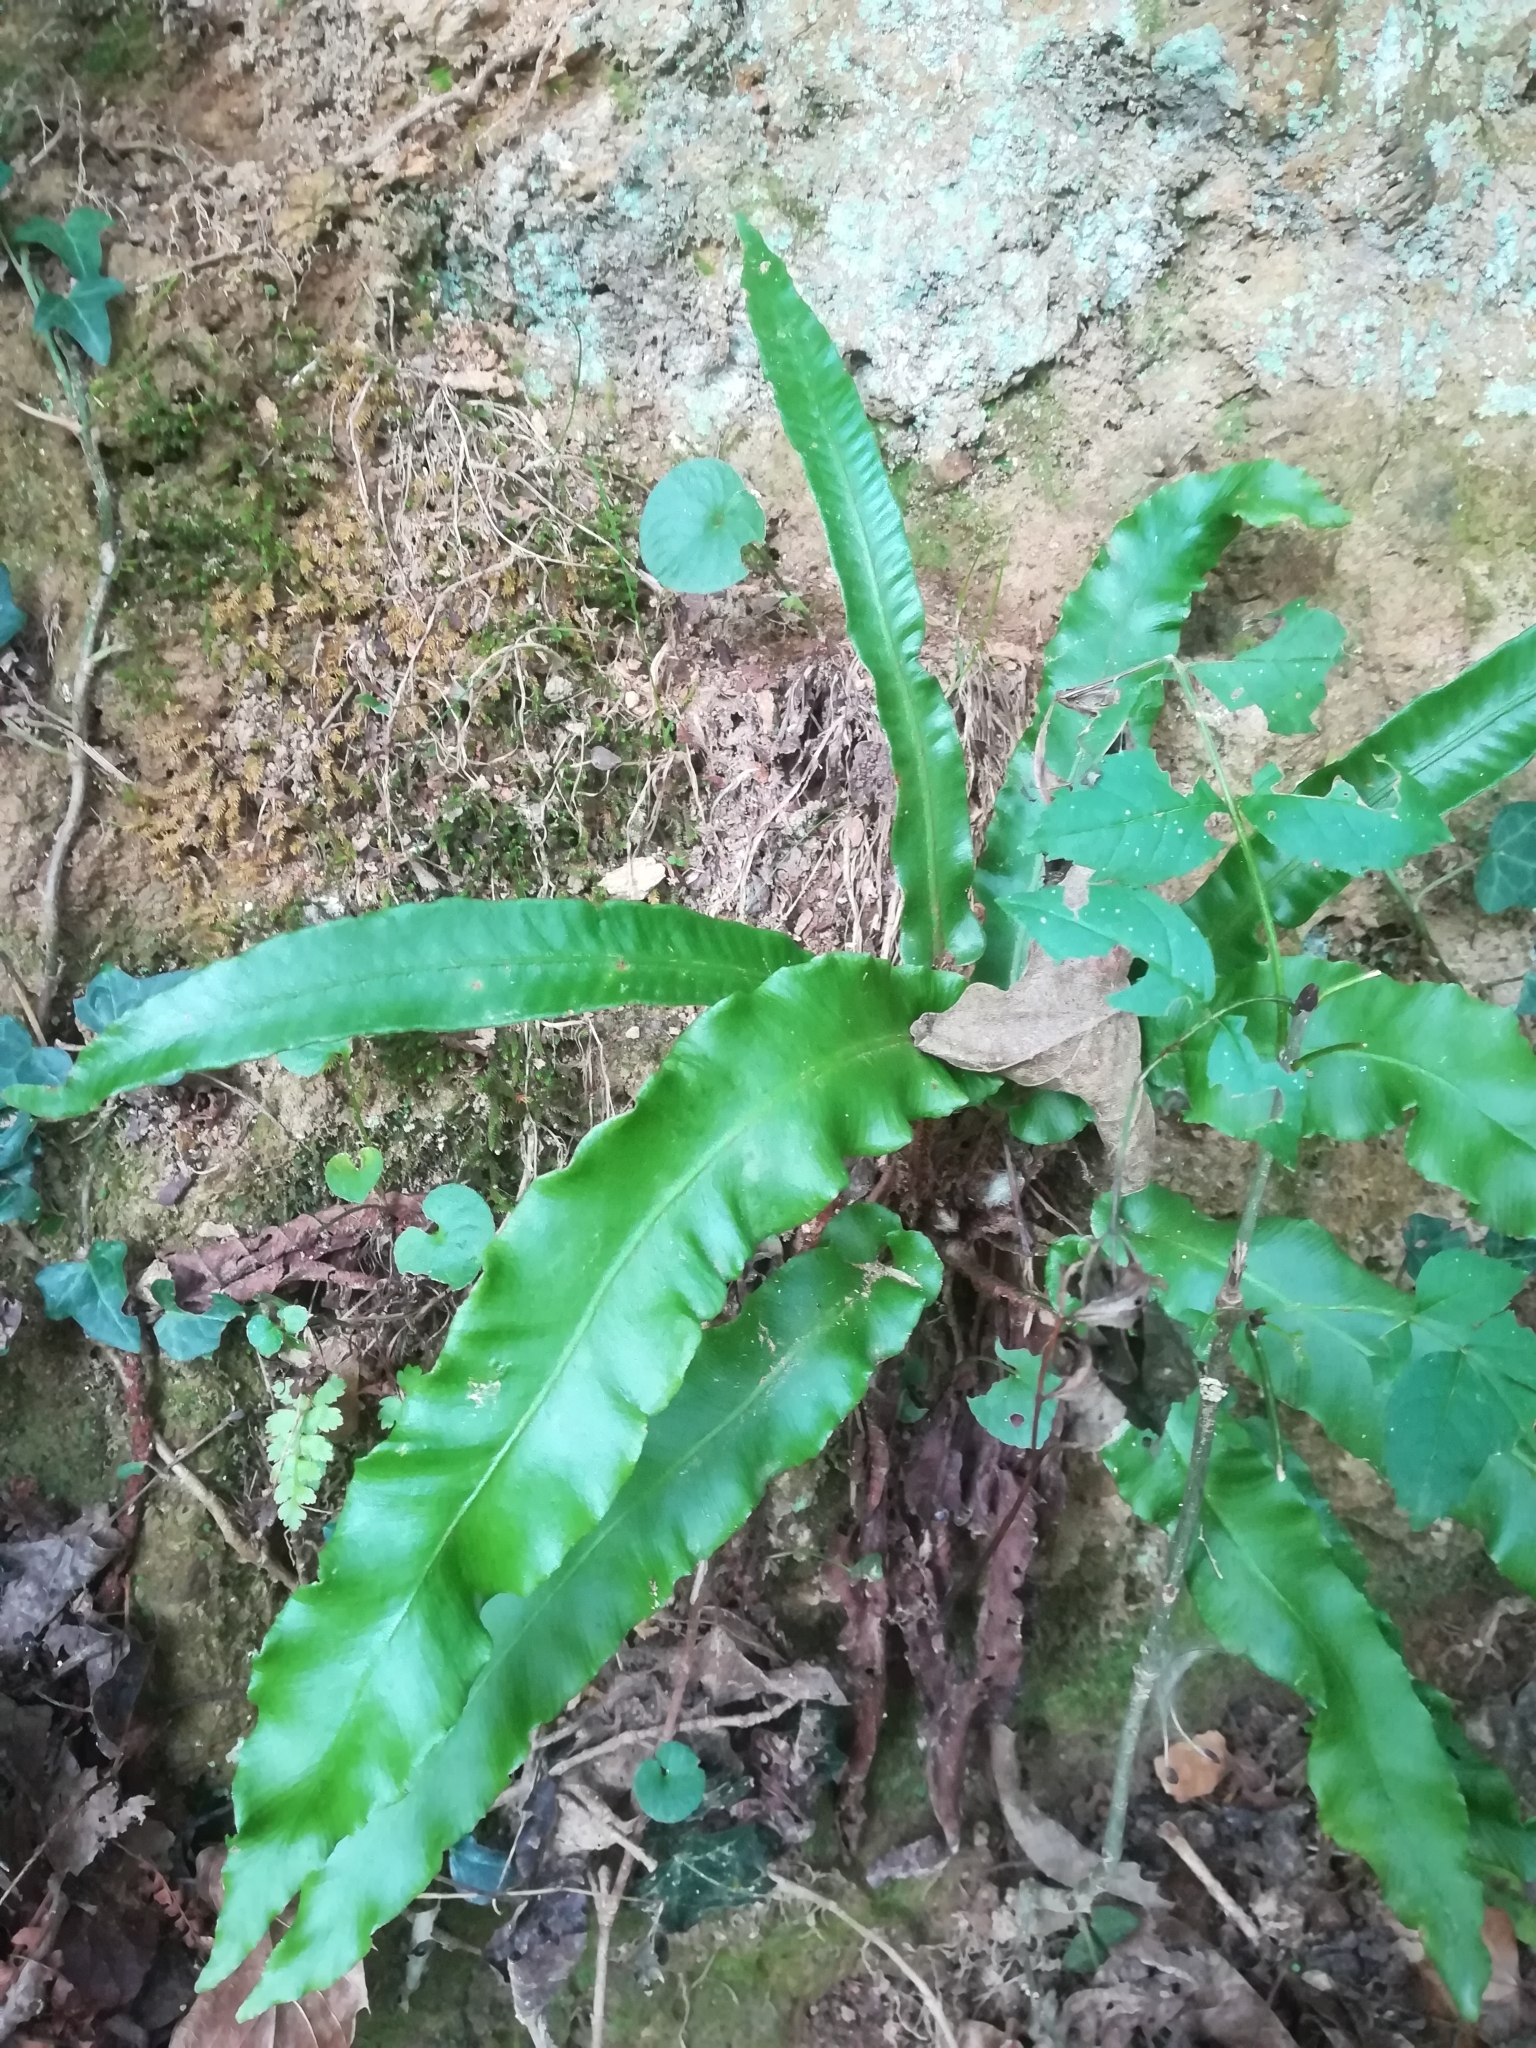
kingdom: Plantae
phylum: Tracheophyta
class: Polypodiopsida
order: Polypodiales
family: Aspleniaceae
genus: Asplenium
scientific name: Asplenium scolopendrium
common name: Hart's-tongue fern
